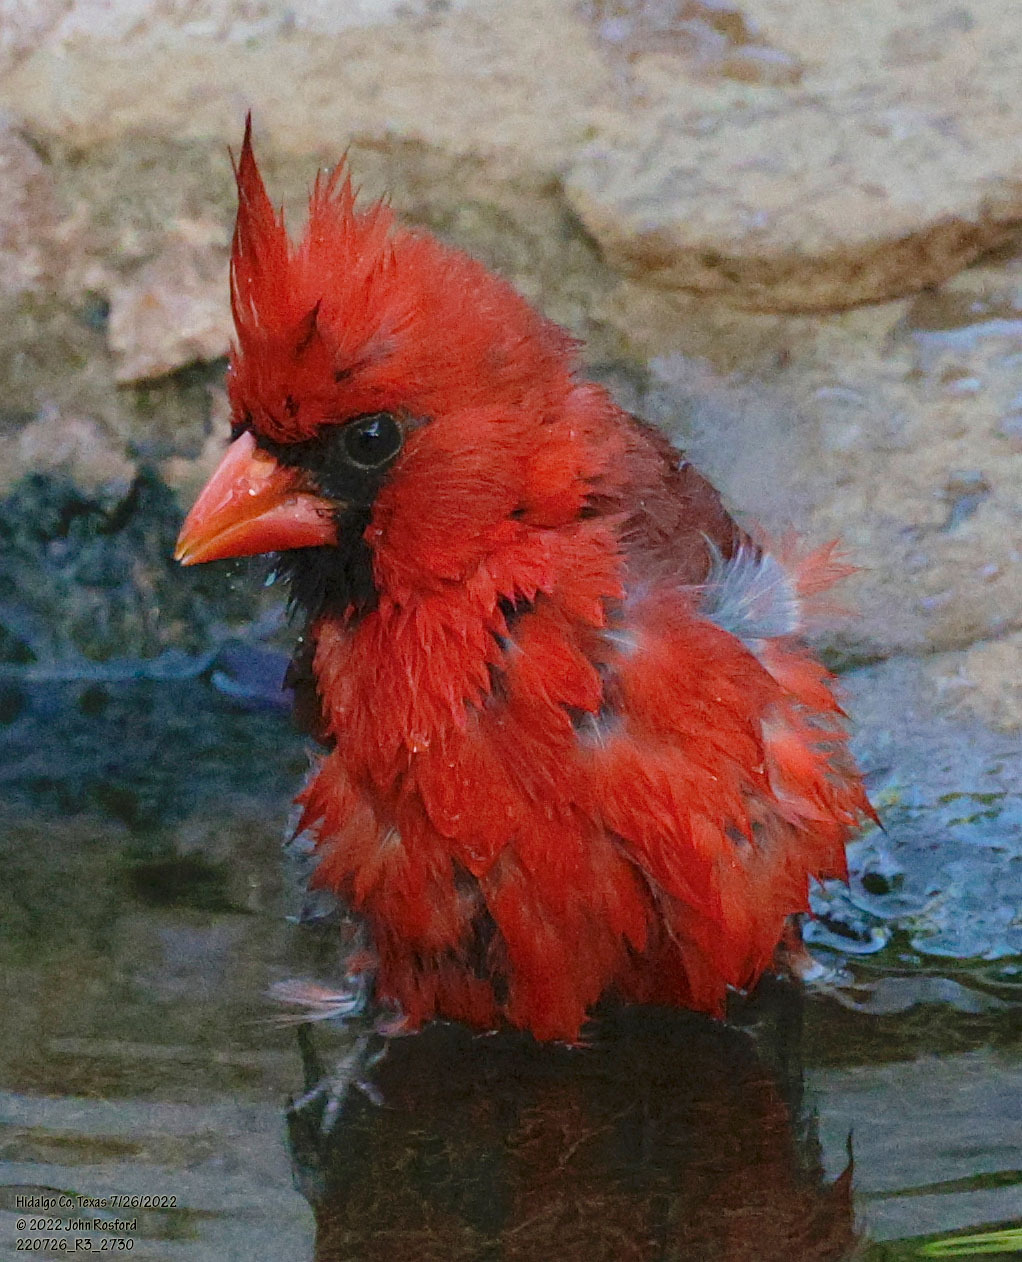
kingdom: Animalia
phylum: Chordata
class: Aves
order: Passeriformes
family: Cardinalidae
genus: Cardinalis
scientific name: Cardinalis cardinalis
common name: Northern cardinal
